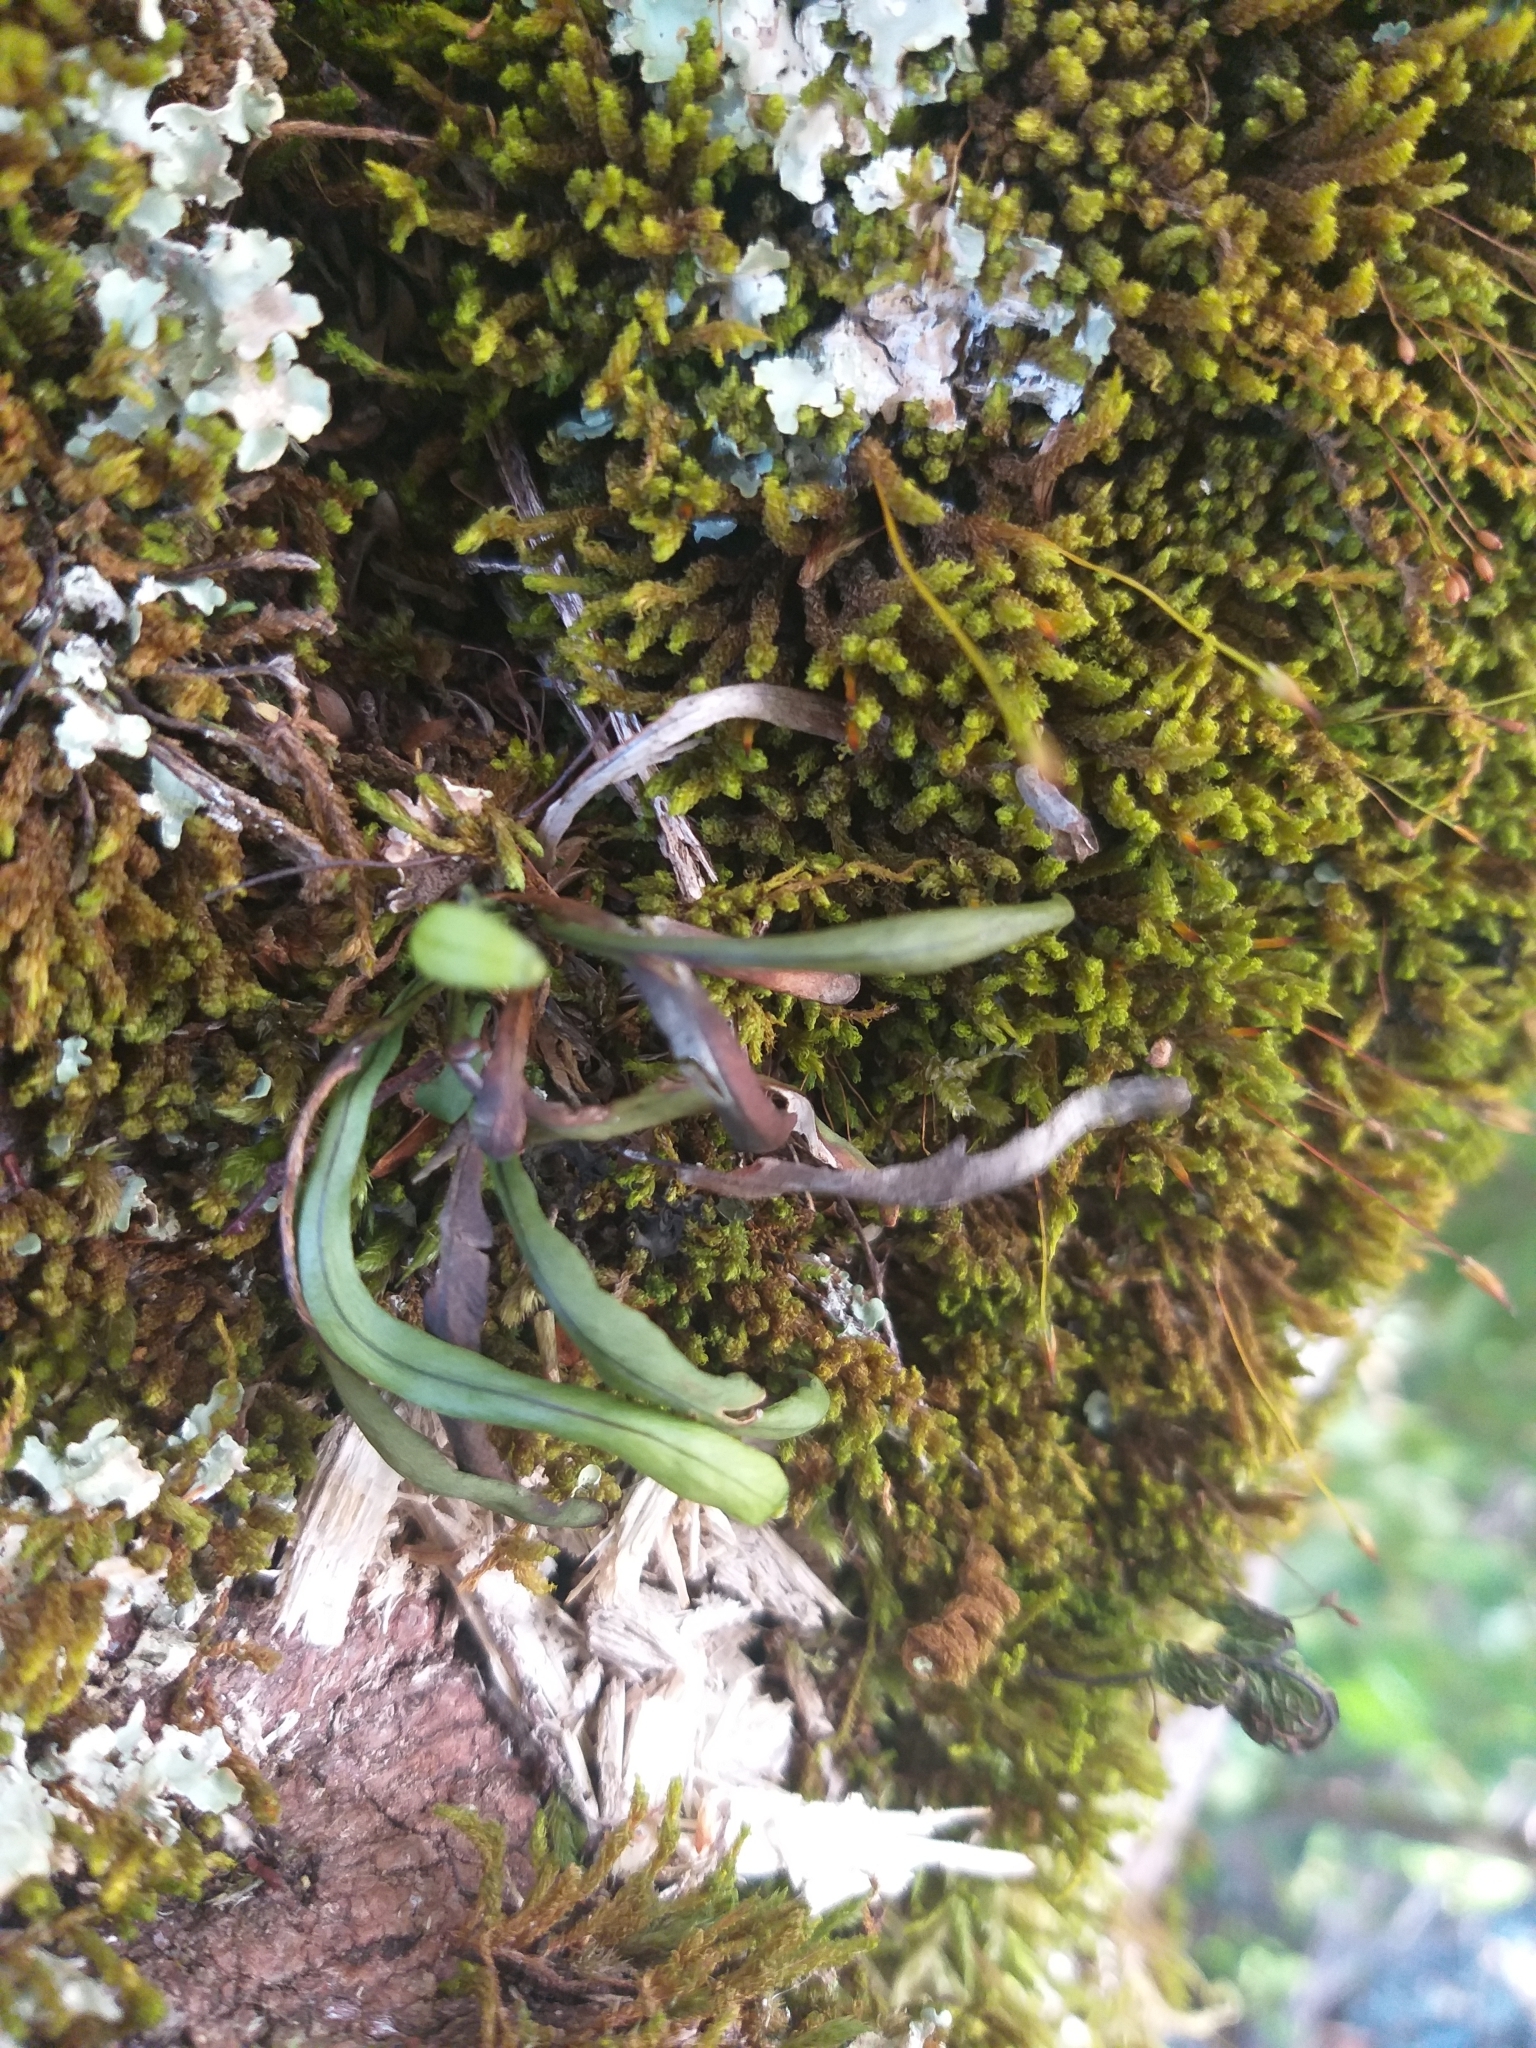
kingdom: Plantae
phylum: Tracheophyta
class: Polypodiopsida
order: Polypodiales
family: Polypodiaceae
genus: Notogrammitis
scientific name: Notogrammitis billardierei
